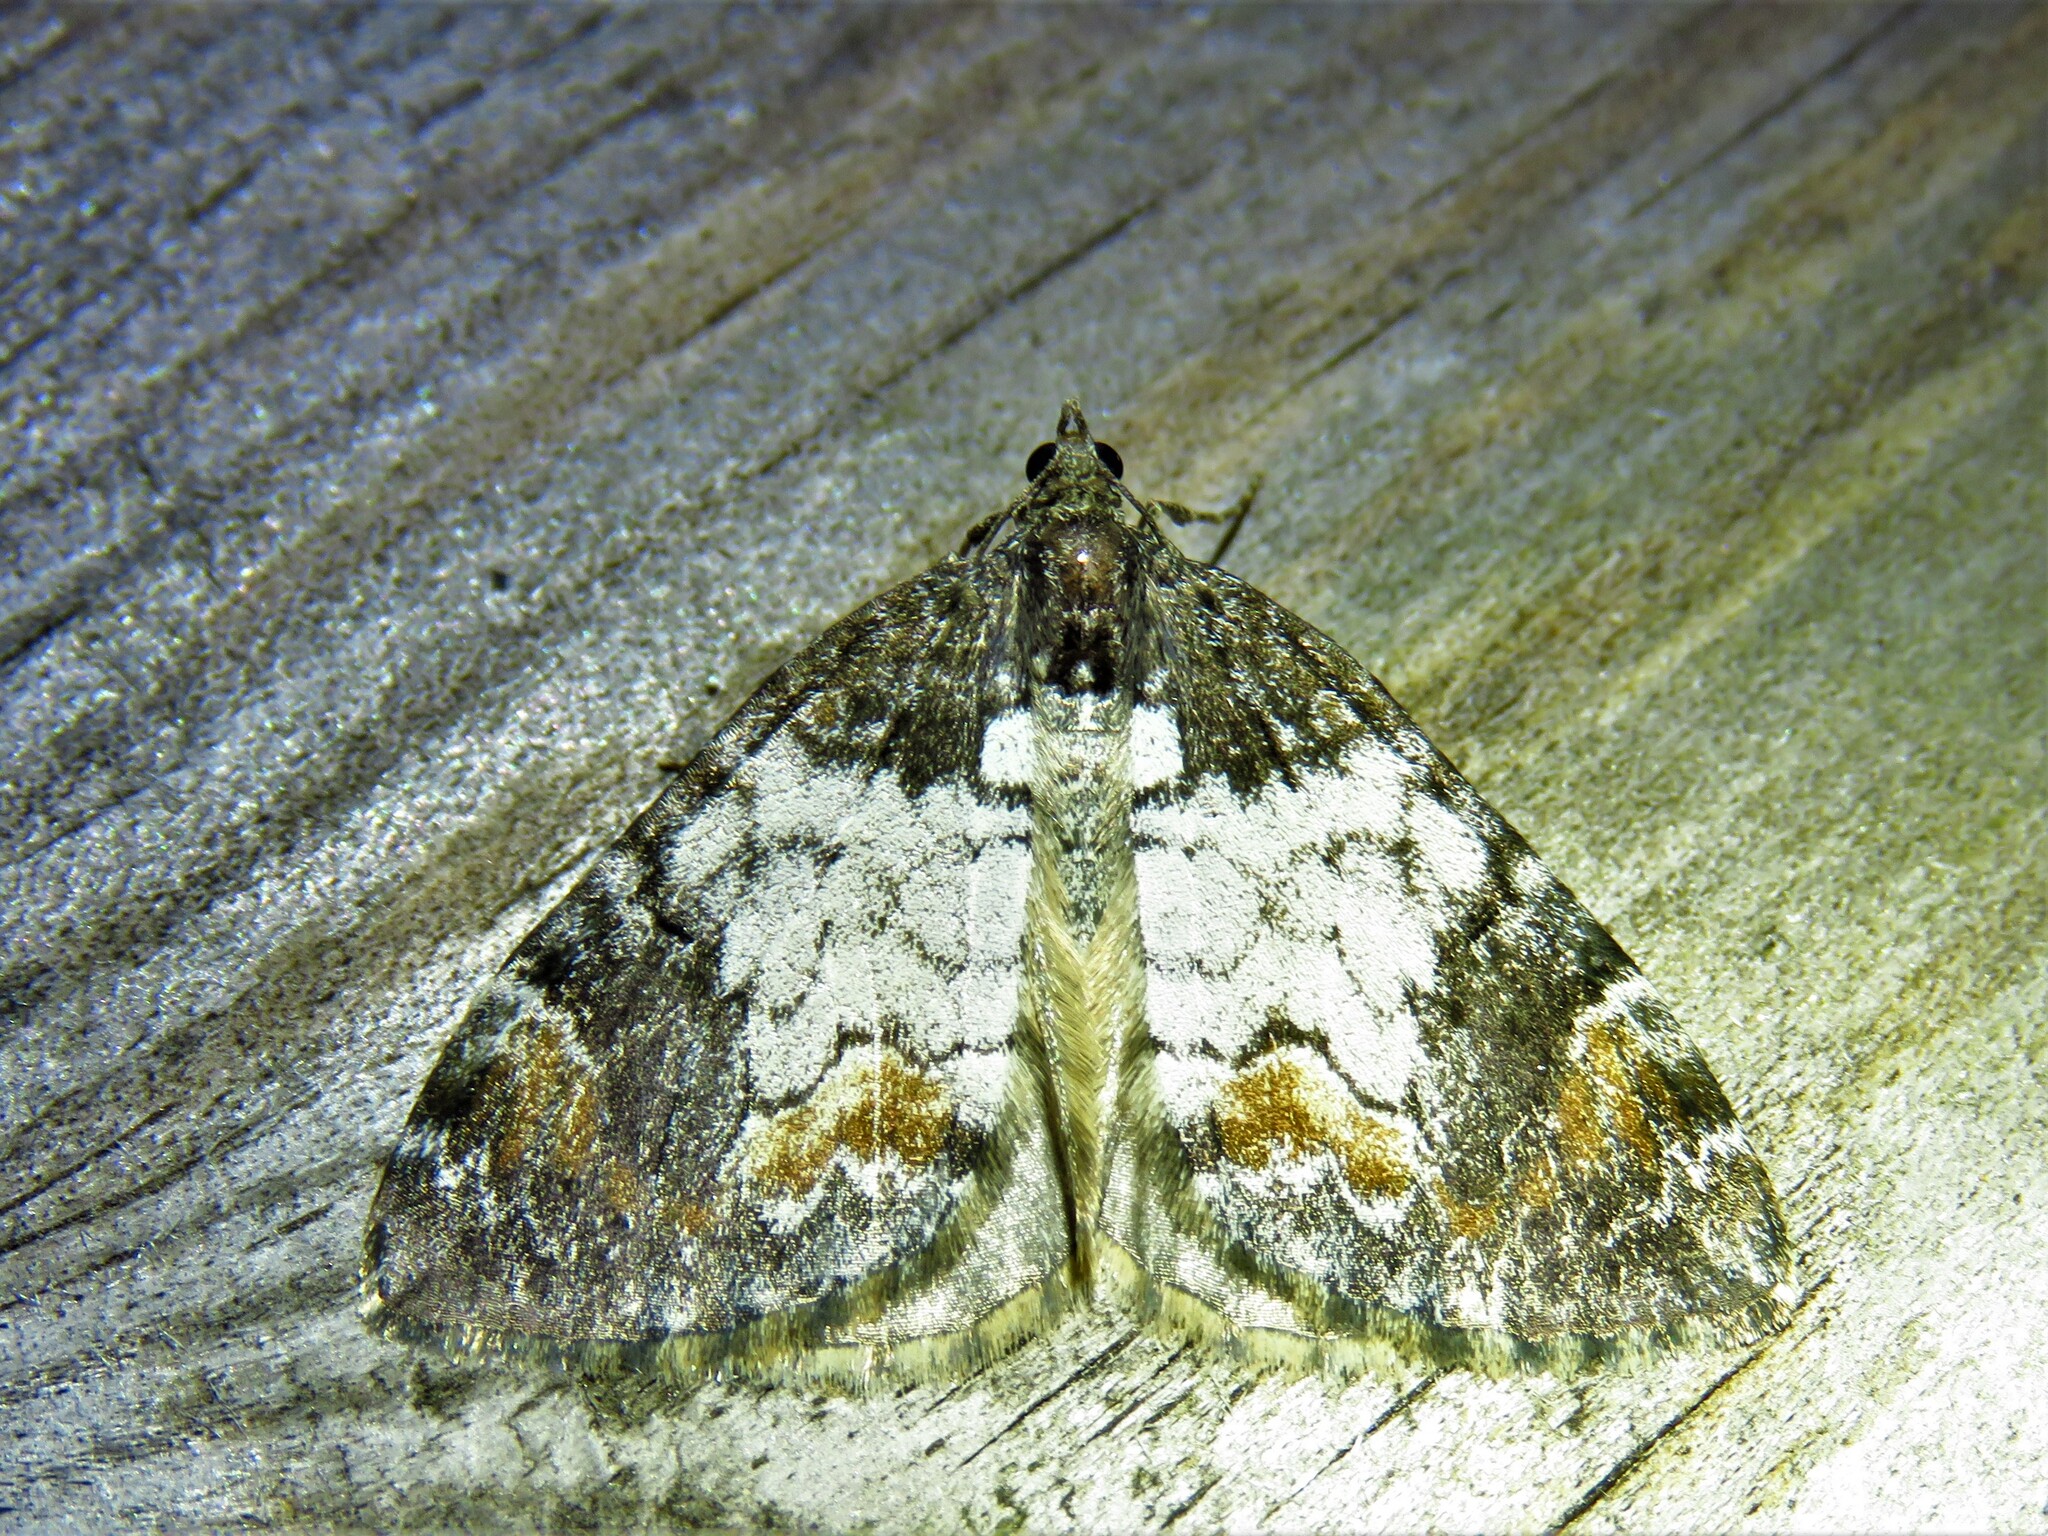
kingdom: Animalia
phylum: Arthropoda
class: Insecta
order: Lepidoptera
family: Geometridae
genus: Dysstroma
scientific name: Dysstroma latefasciata
